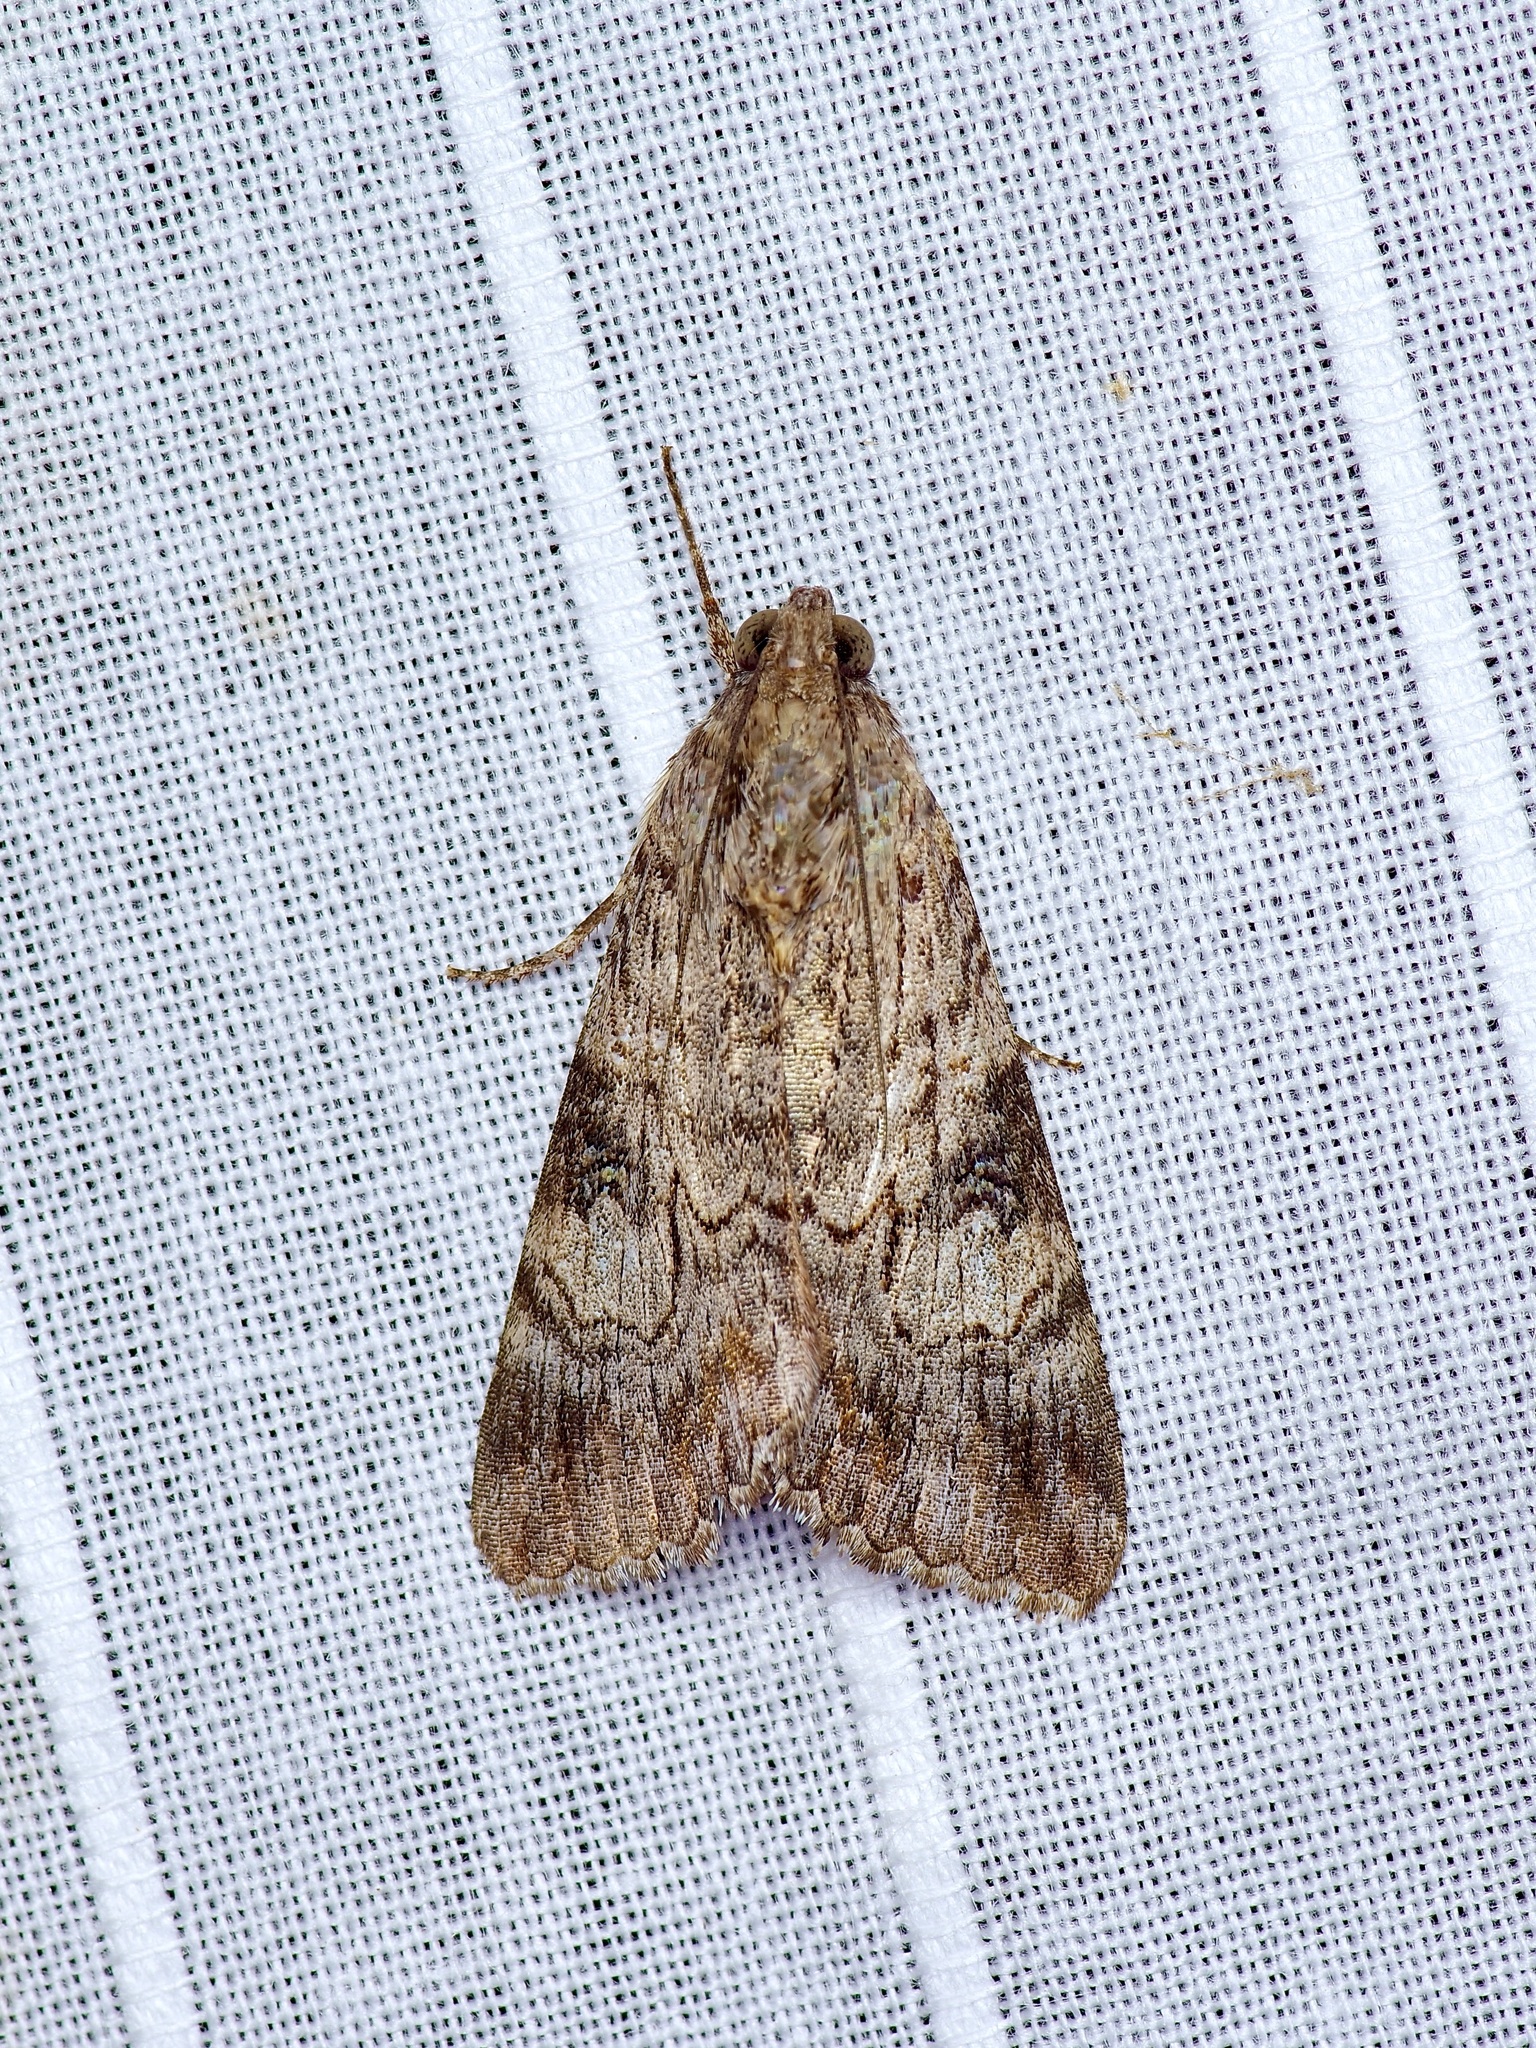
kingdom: Animalia
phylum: Arthropoda
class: Insecta
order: Lepidoptera
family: Erebidae
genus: Melipotis
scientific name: Melipotis jucunda
